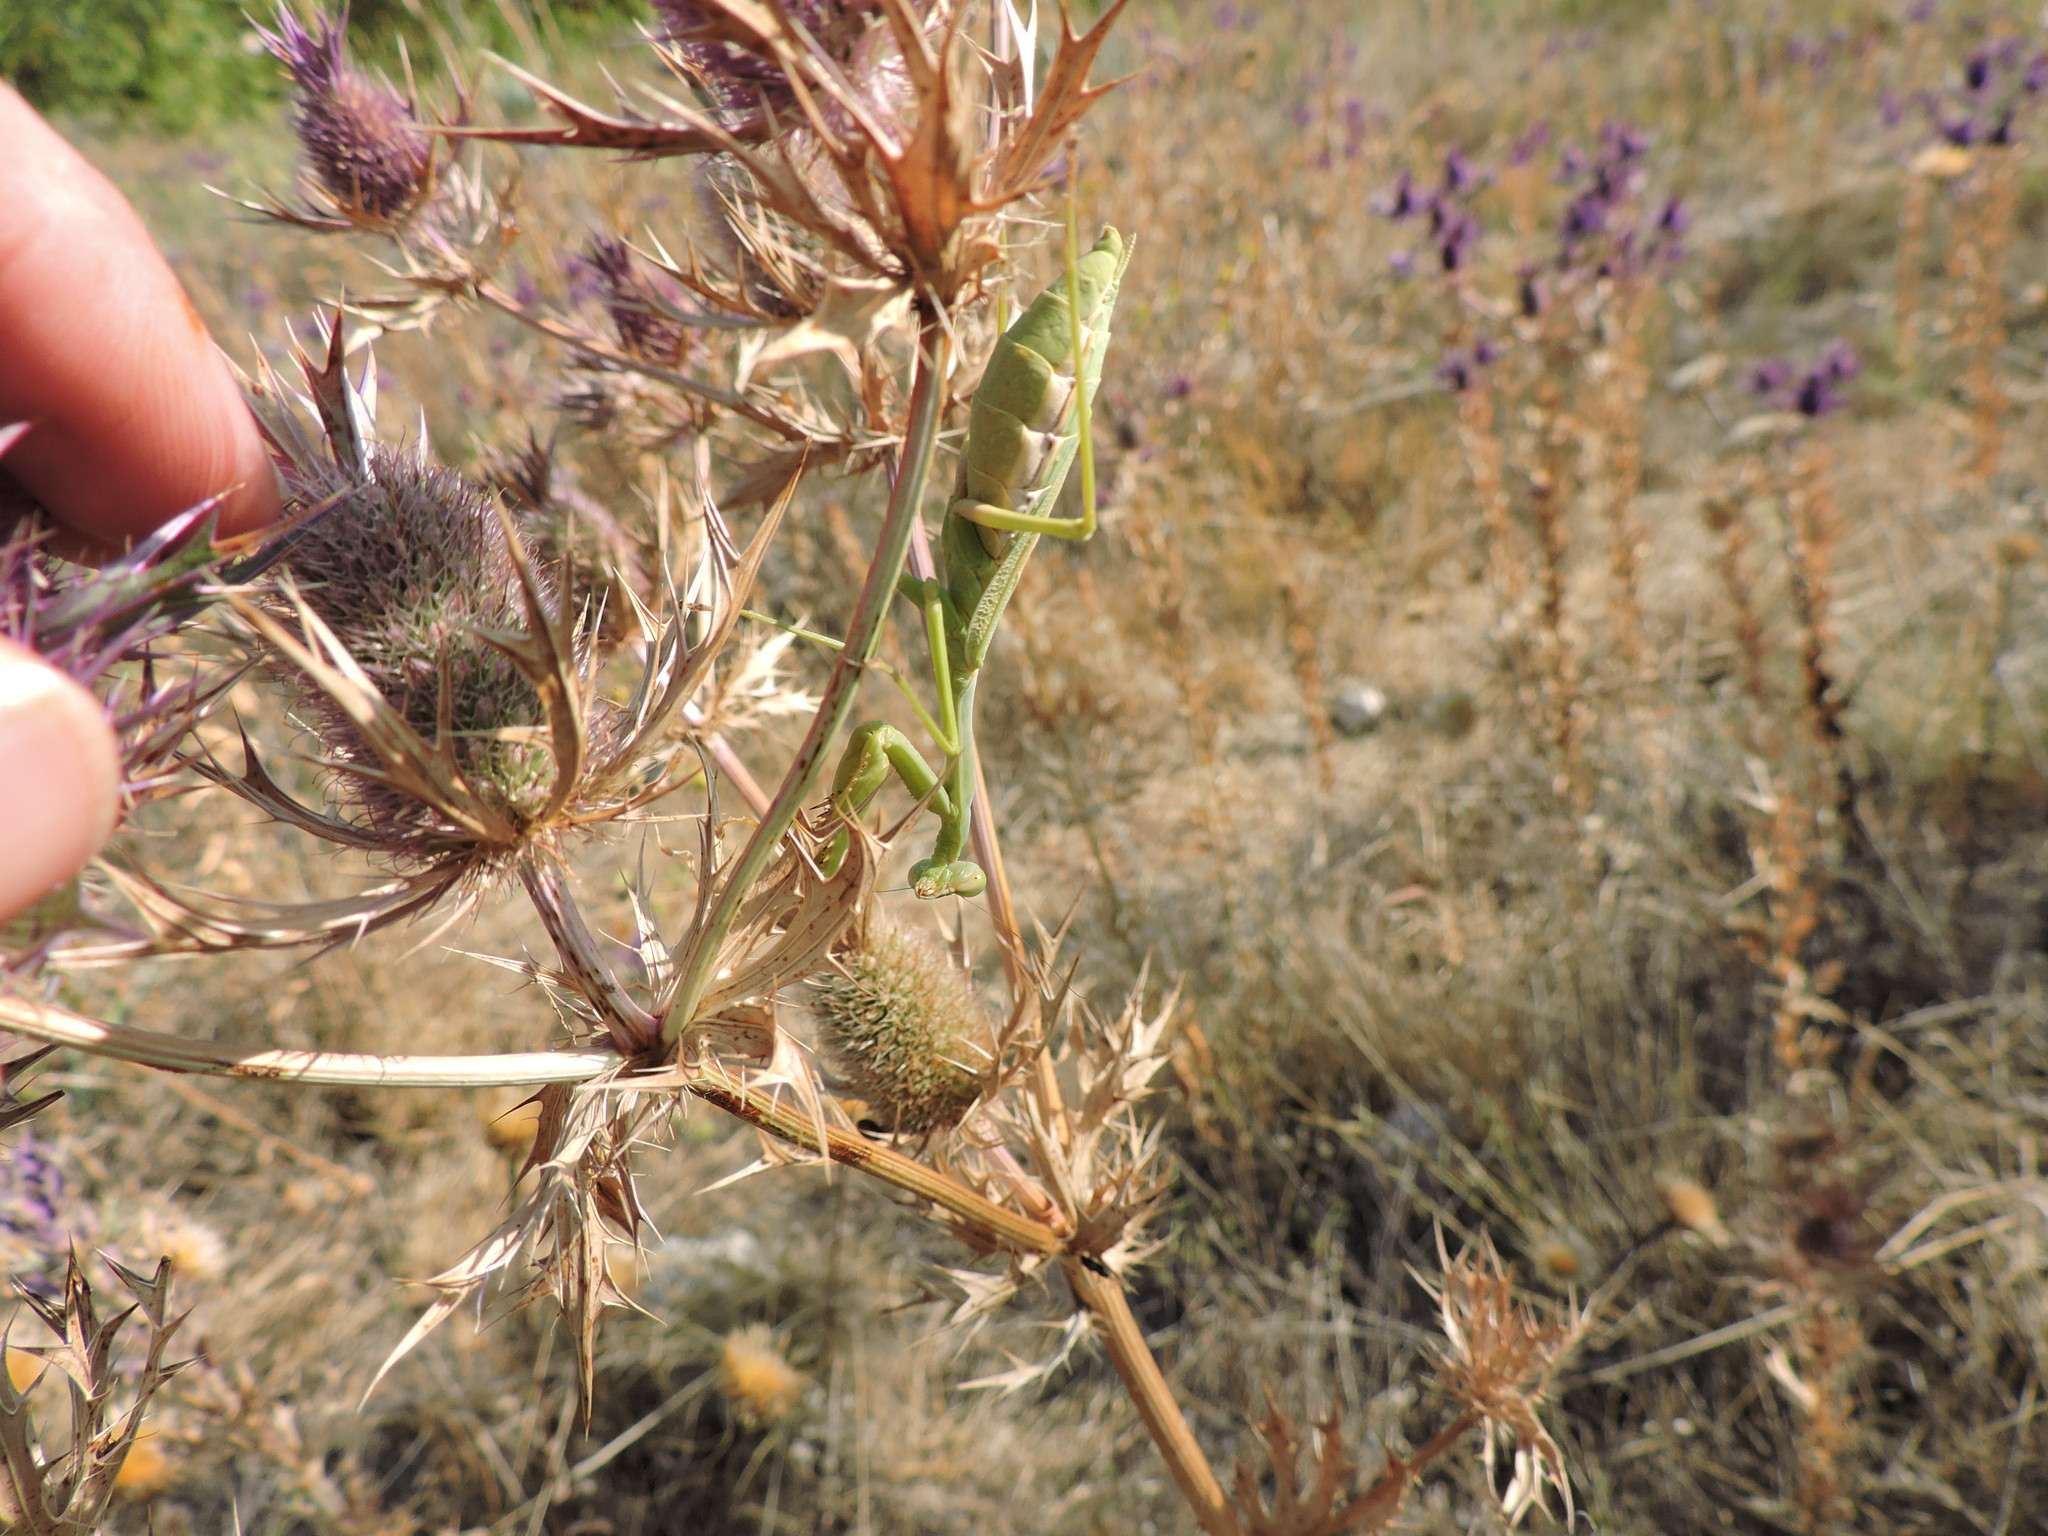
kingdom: Animalia
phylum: Arthropoda
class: Insecta
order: Mantodea
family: Mantidae
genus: Stagmomantis
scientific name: Stagmomantis carolina
